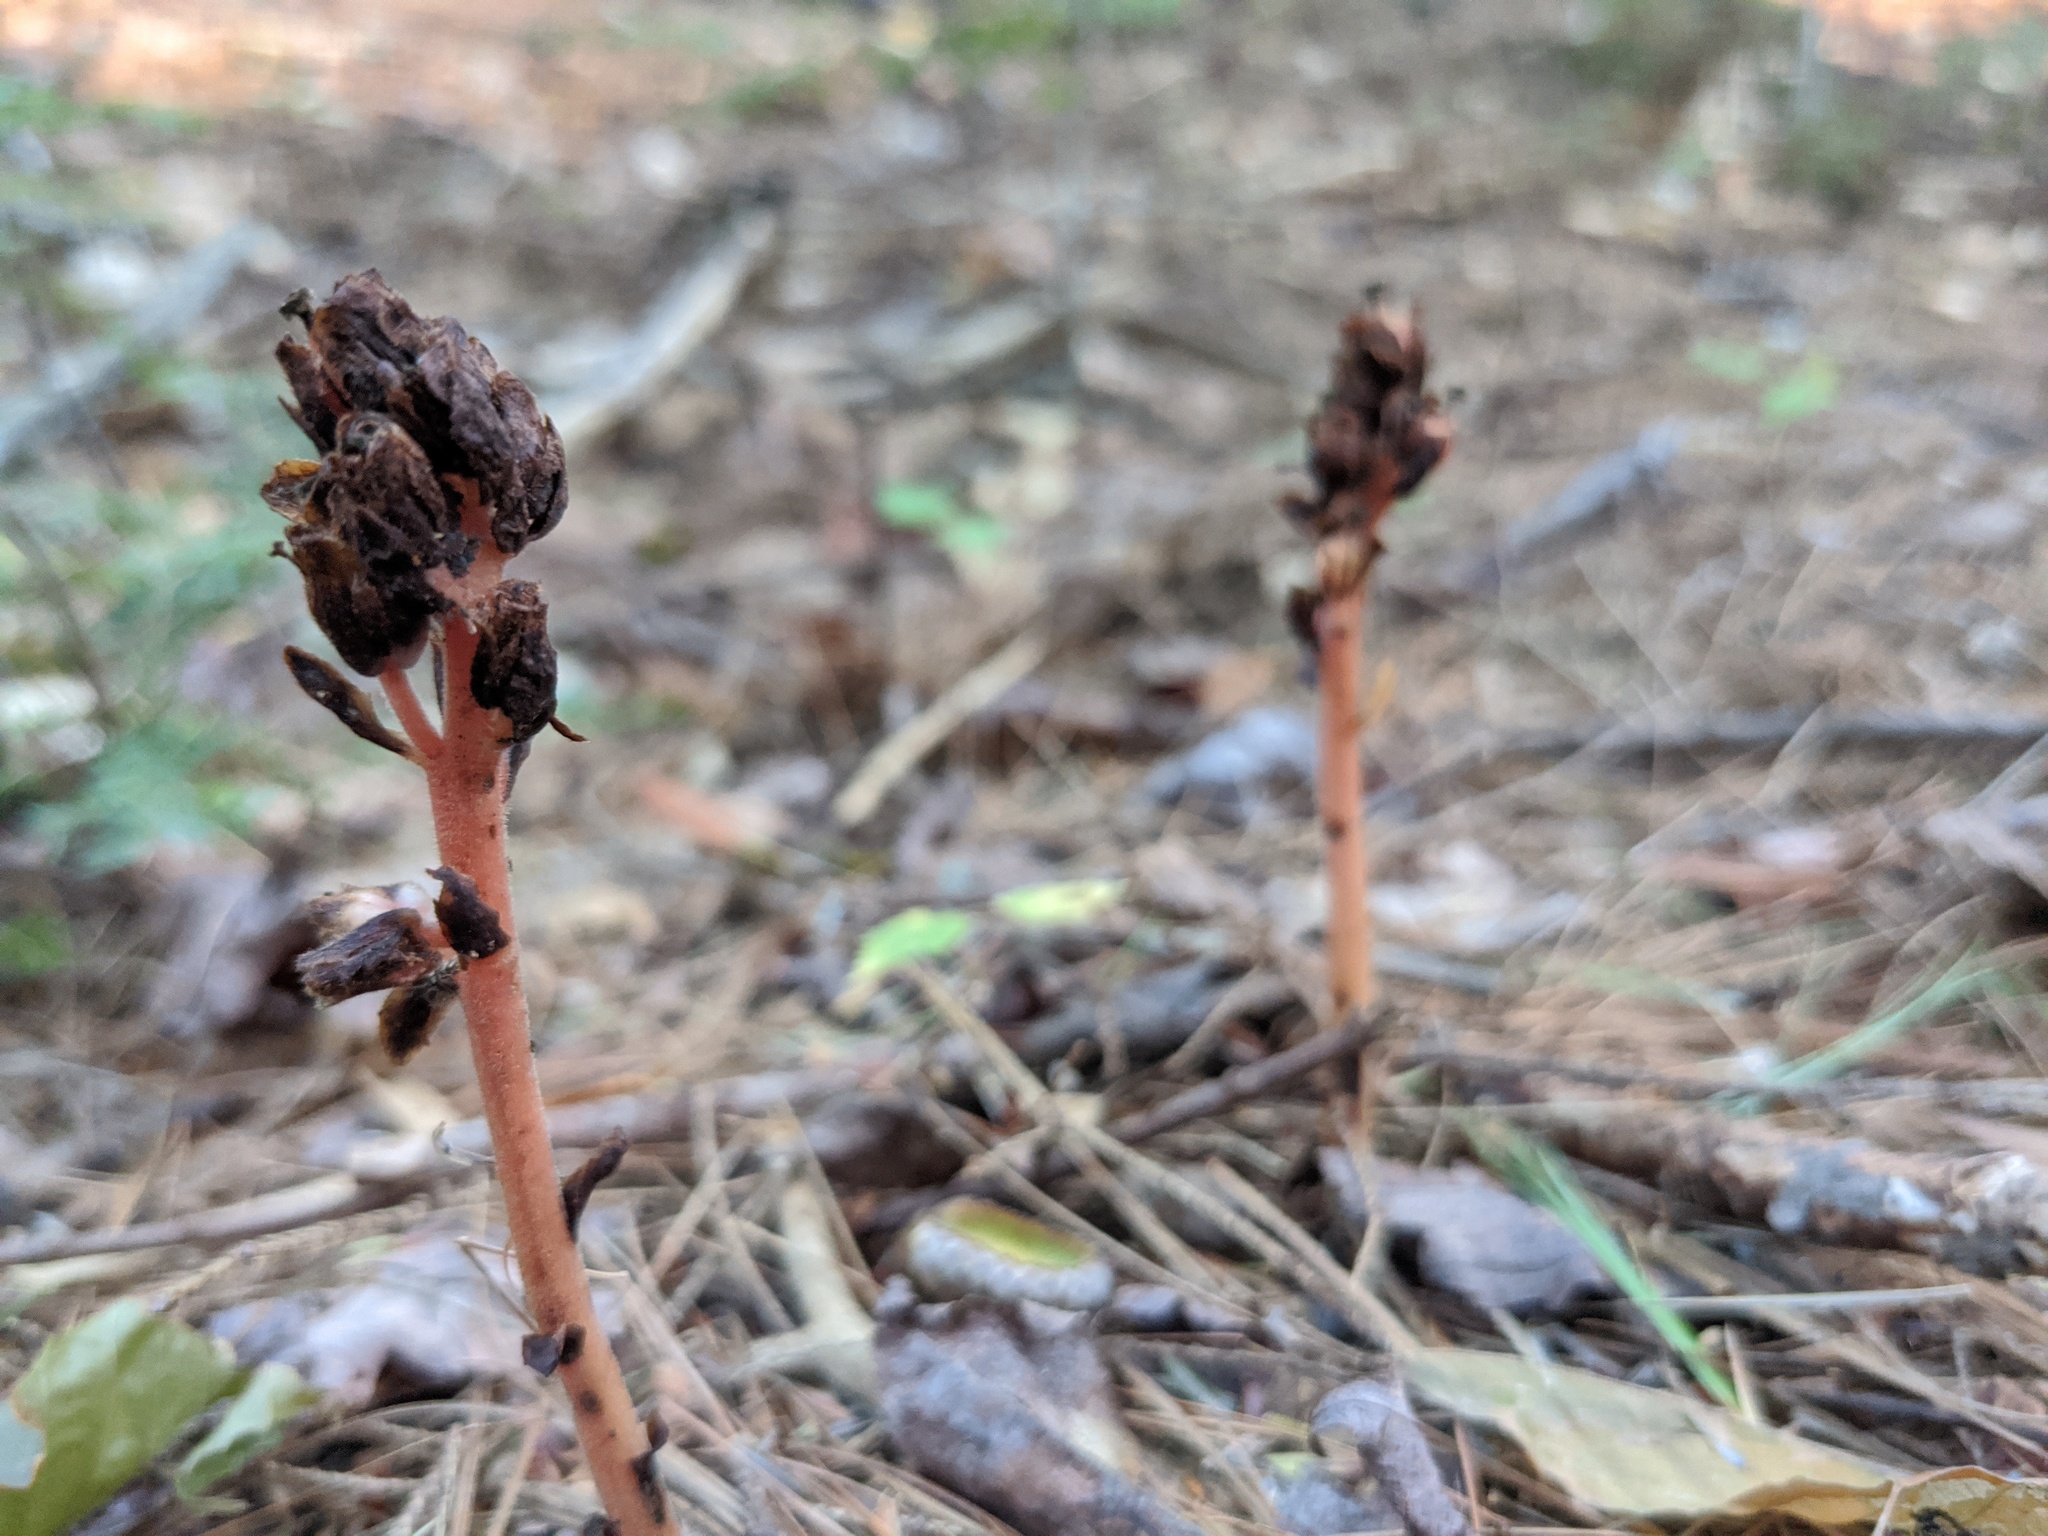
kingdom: Plantae
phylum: Tracheophyta
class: Magnoliopsida
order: Ericales
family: Ericaceae
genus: Hypopitys
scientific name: Hypopitys monotropa
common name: Yellow bird's-nest
